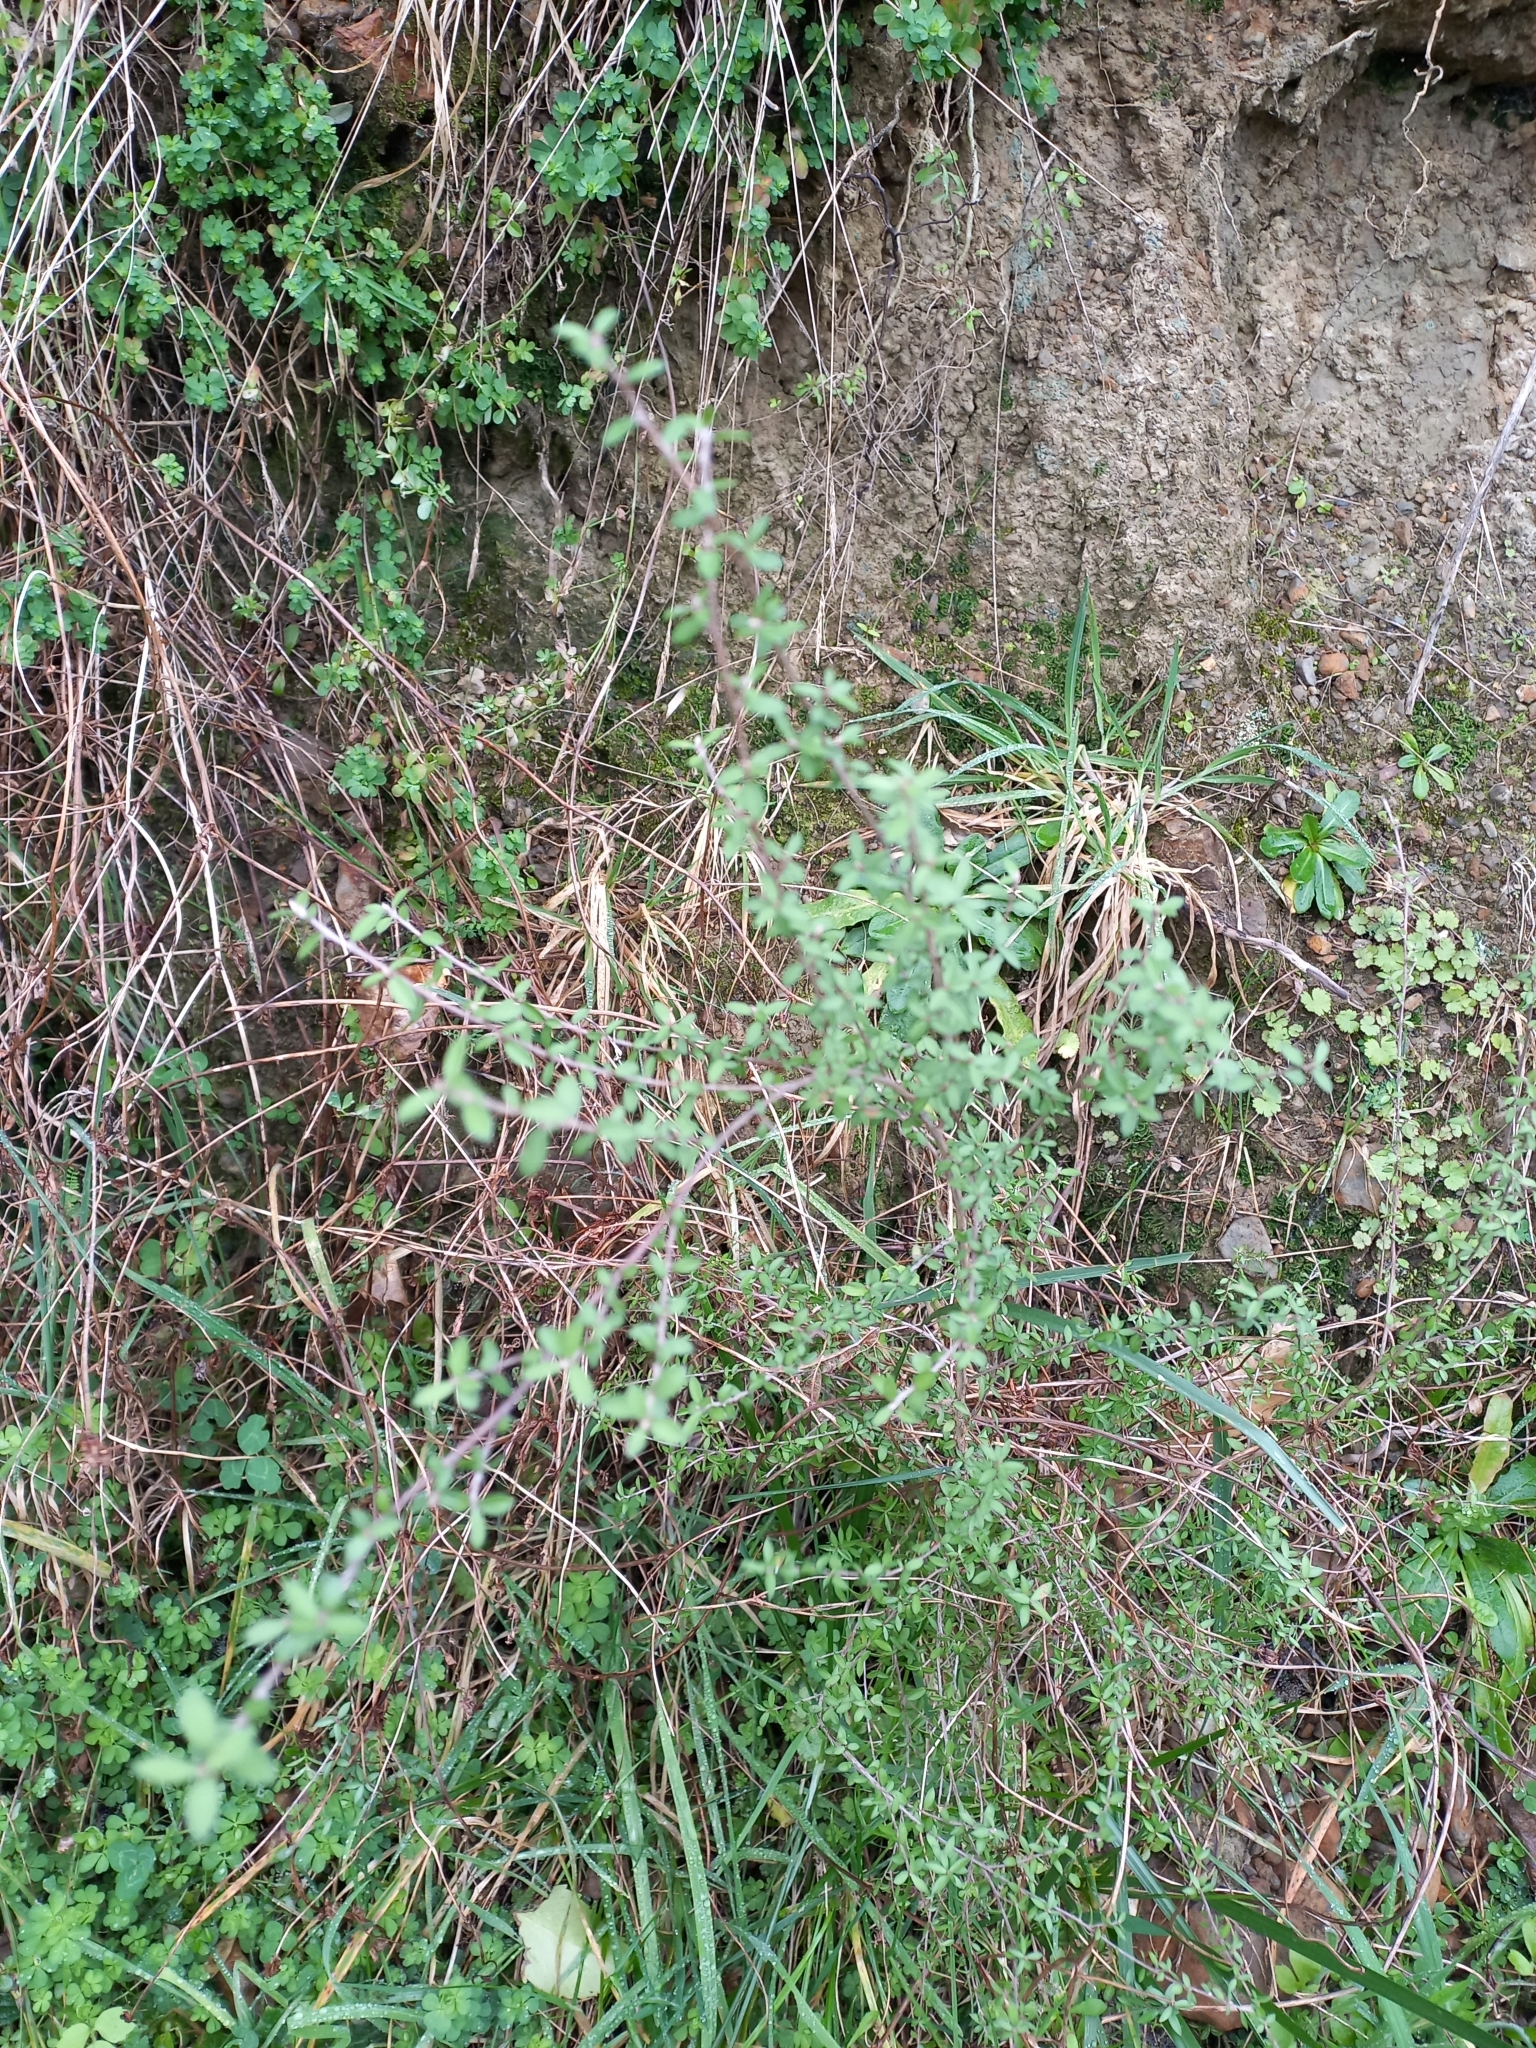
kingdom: Plantae
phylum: Tracheophyta
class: Magnoliopsida
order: Myrtales
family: Myrtaceae
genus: Leptospermum
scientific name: Leptospermum scoparium
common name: Broom tea-tree
